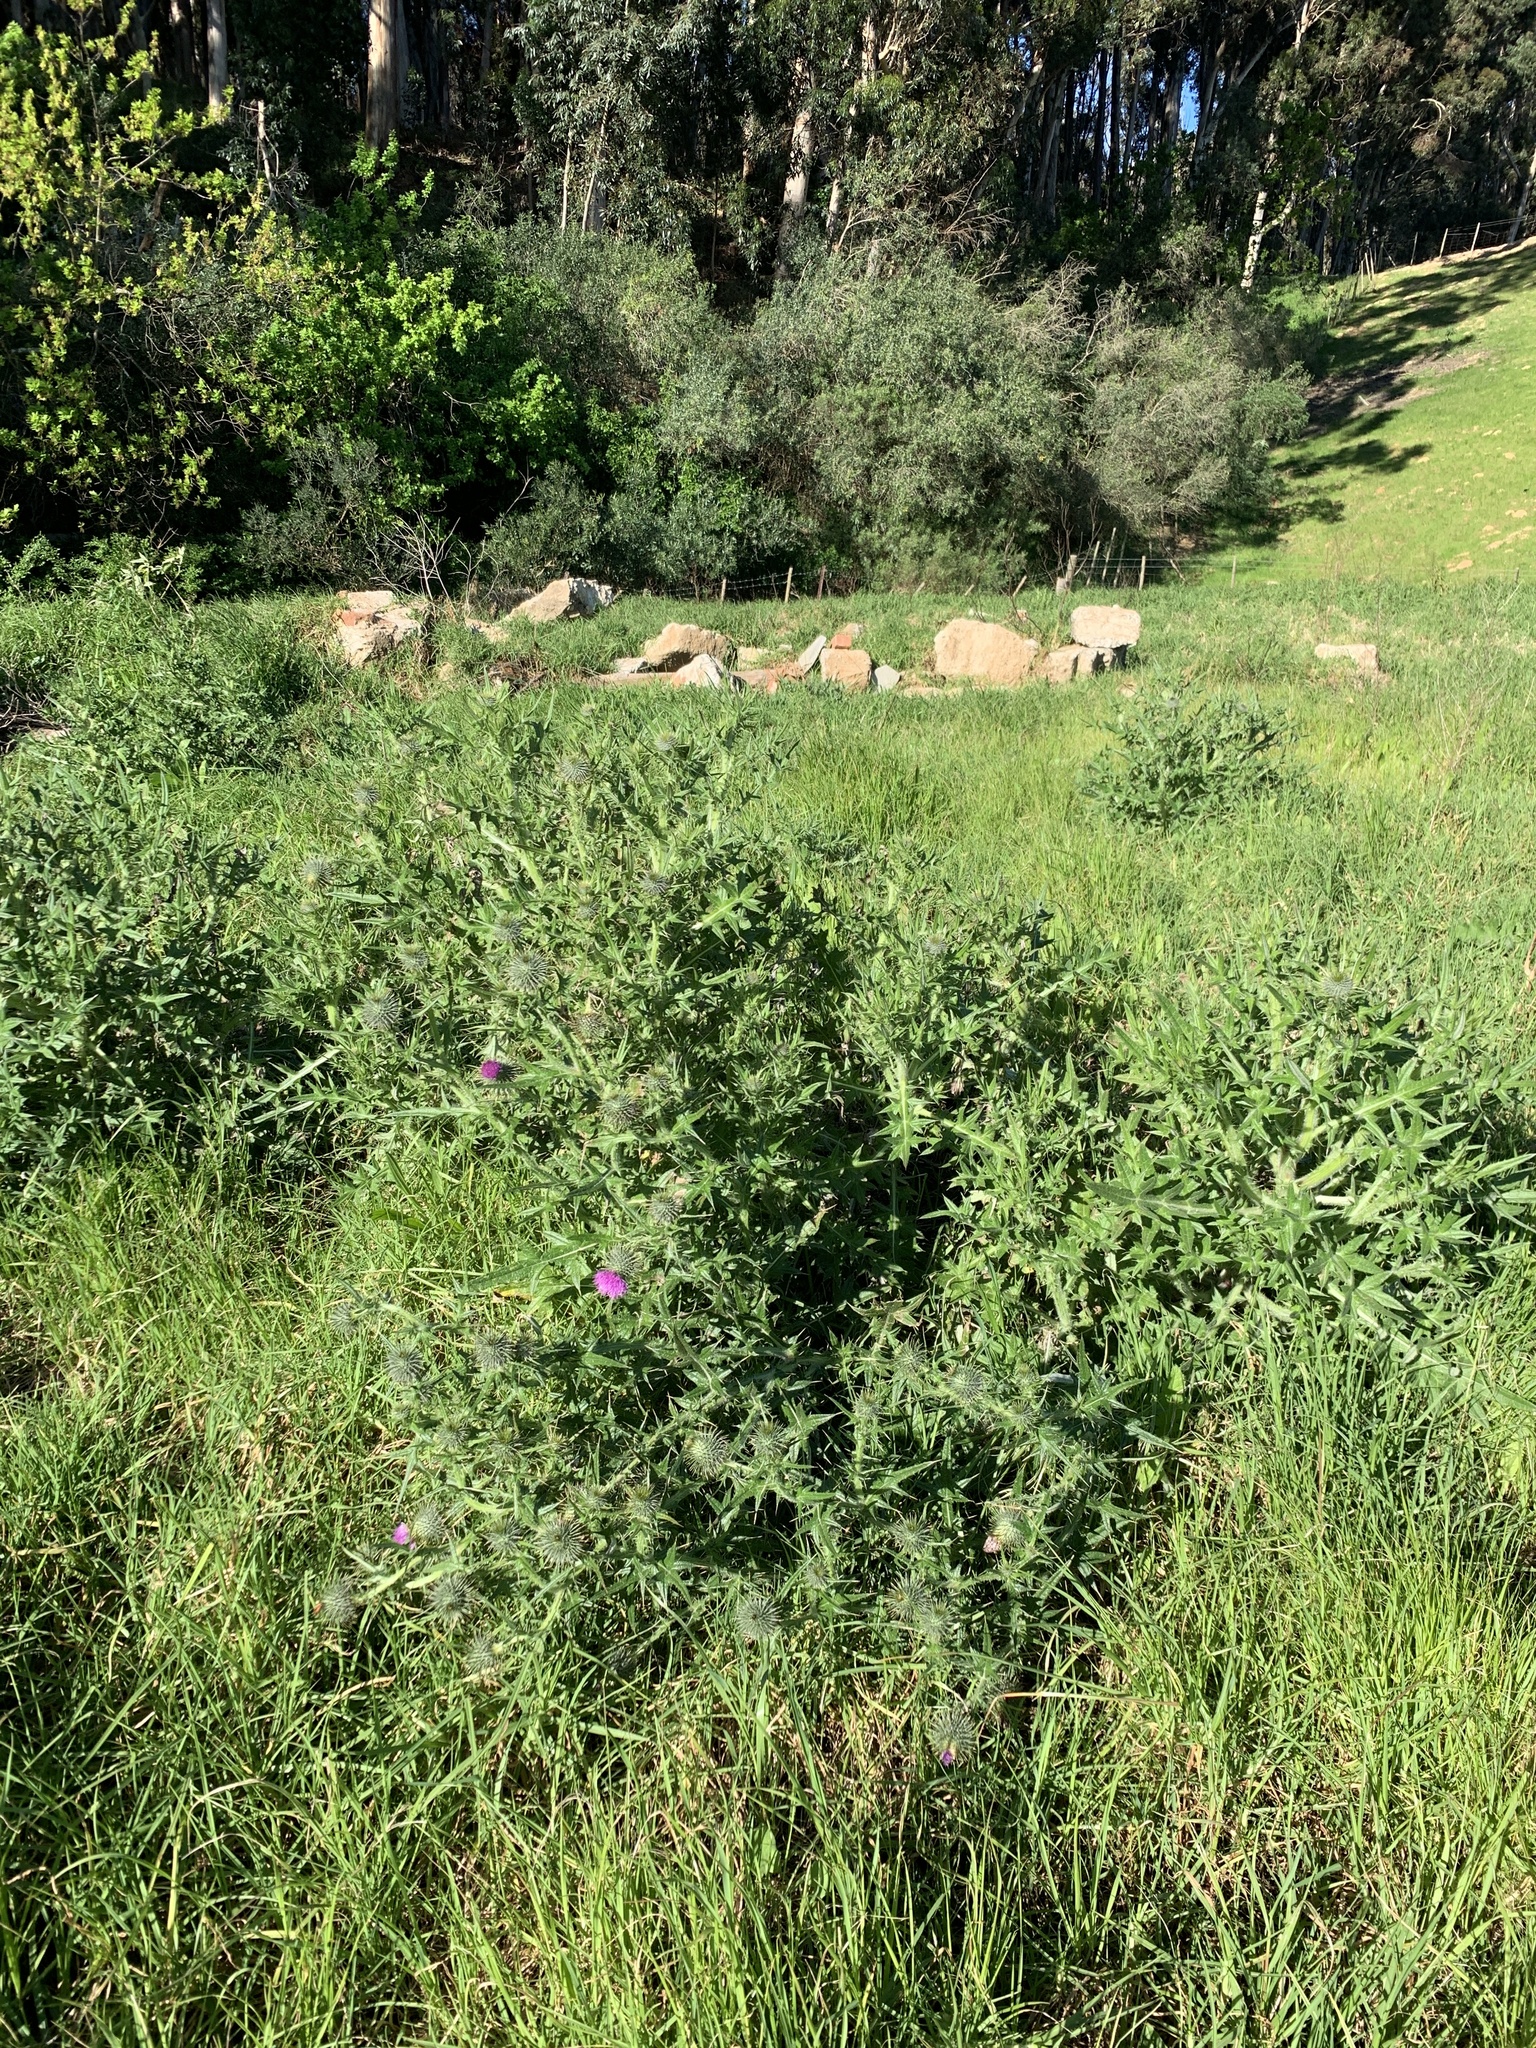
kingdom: Plantae
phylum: Tracheophyta
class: Magnoliopsida
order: Asterales
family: Asteraceae
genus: Cirsium
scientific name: Cirsium vulgare
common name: Bull thistle
